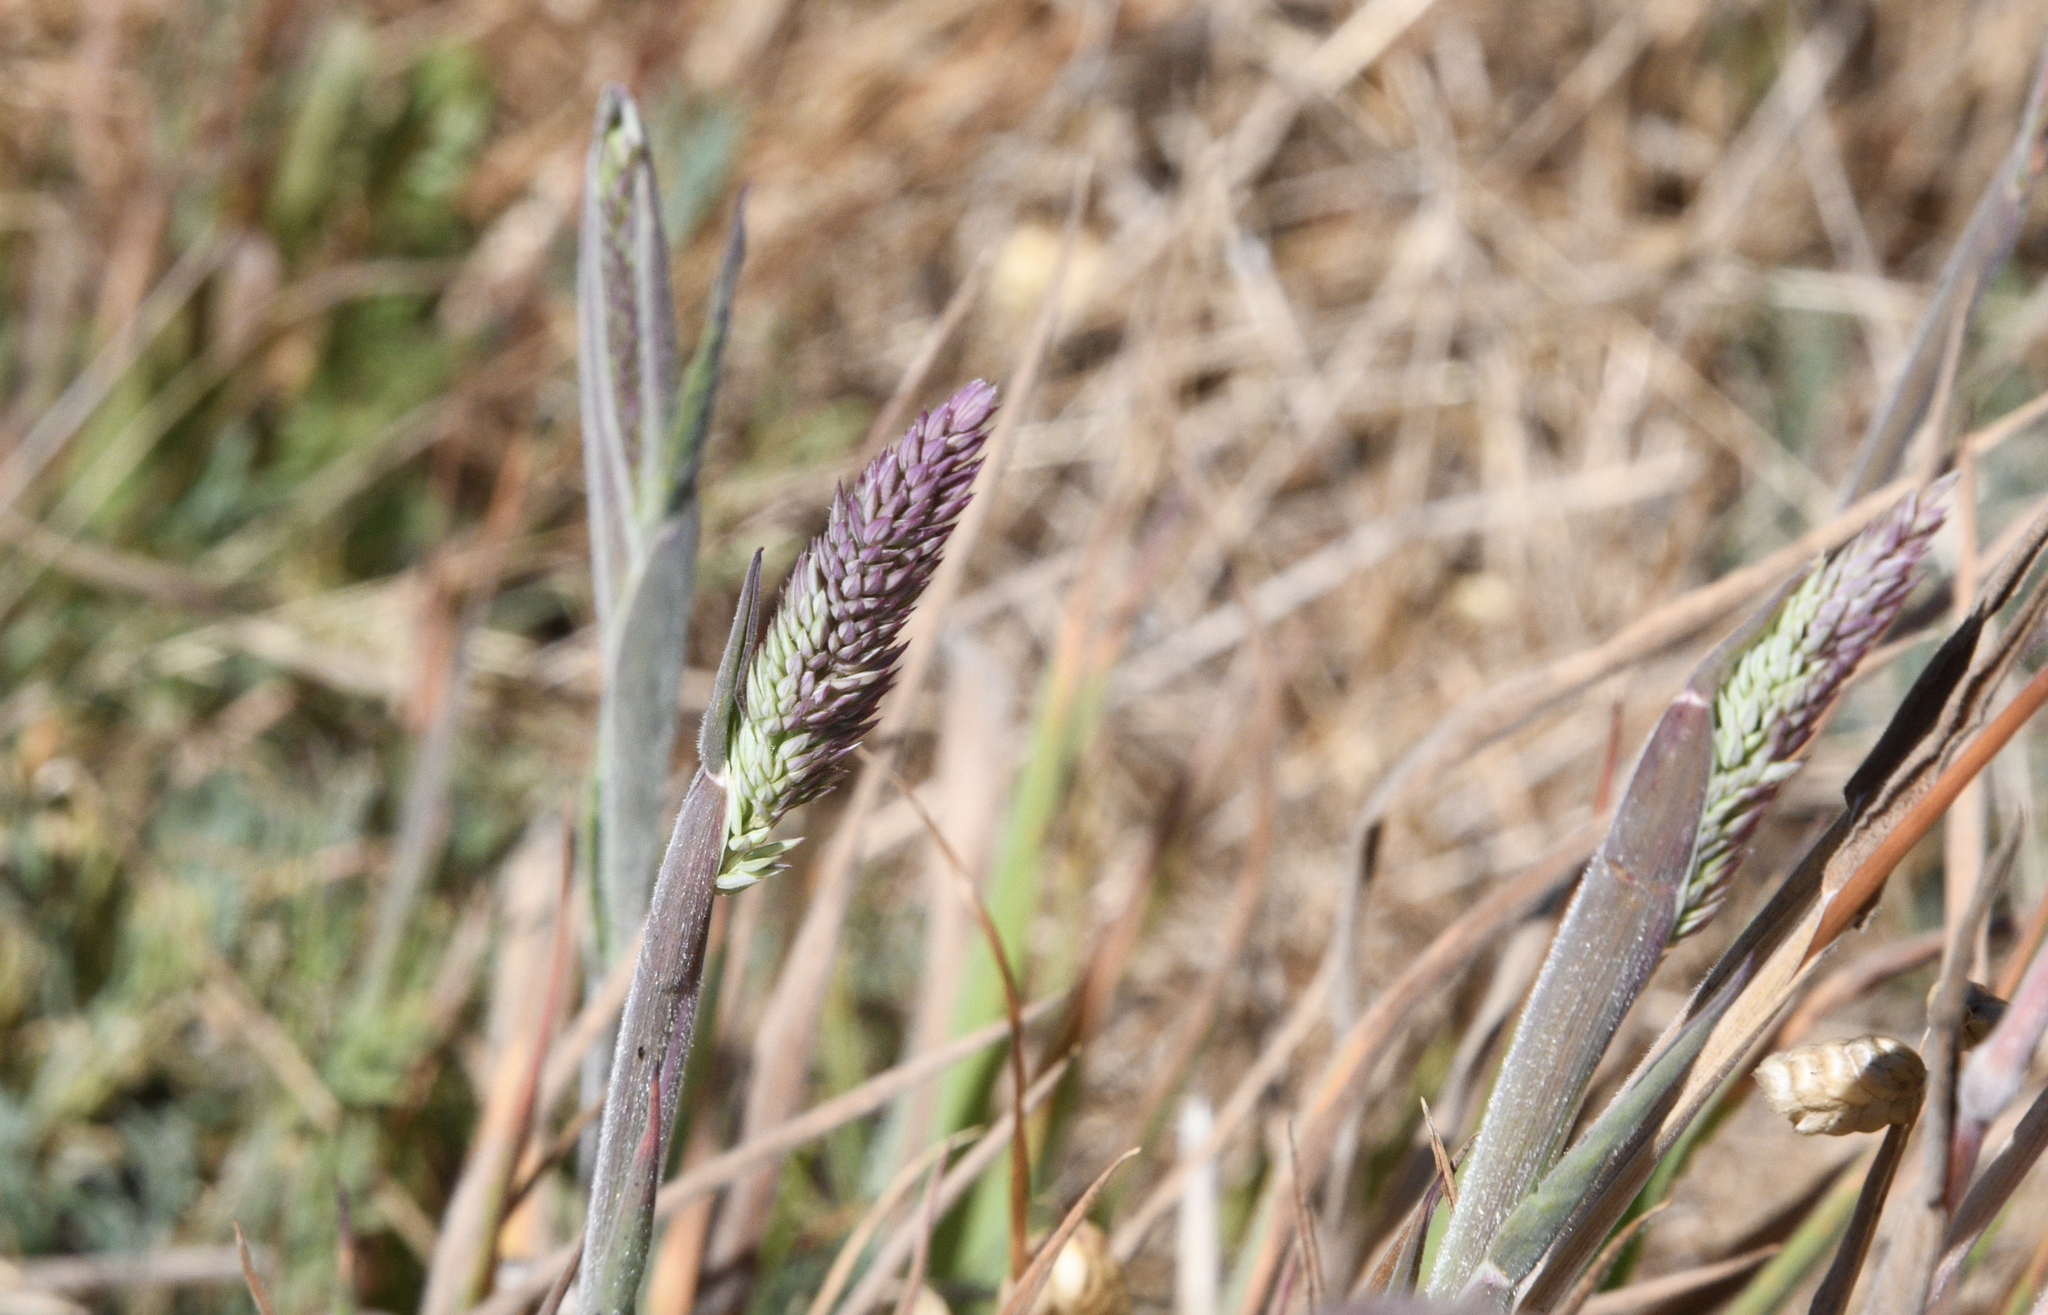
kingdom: Plantae
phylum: Tracheophyta
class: Liliopsida
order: Poales
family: Poaceae
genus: Holcus
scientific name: Holcus lanatus
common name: Yorkshire-fog
